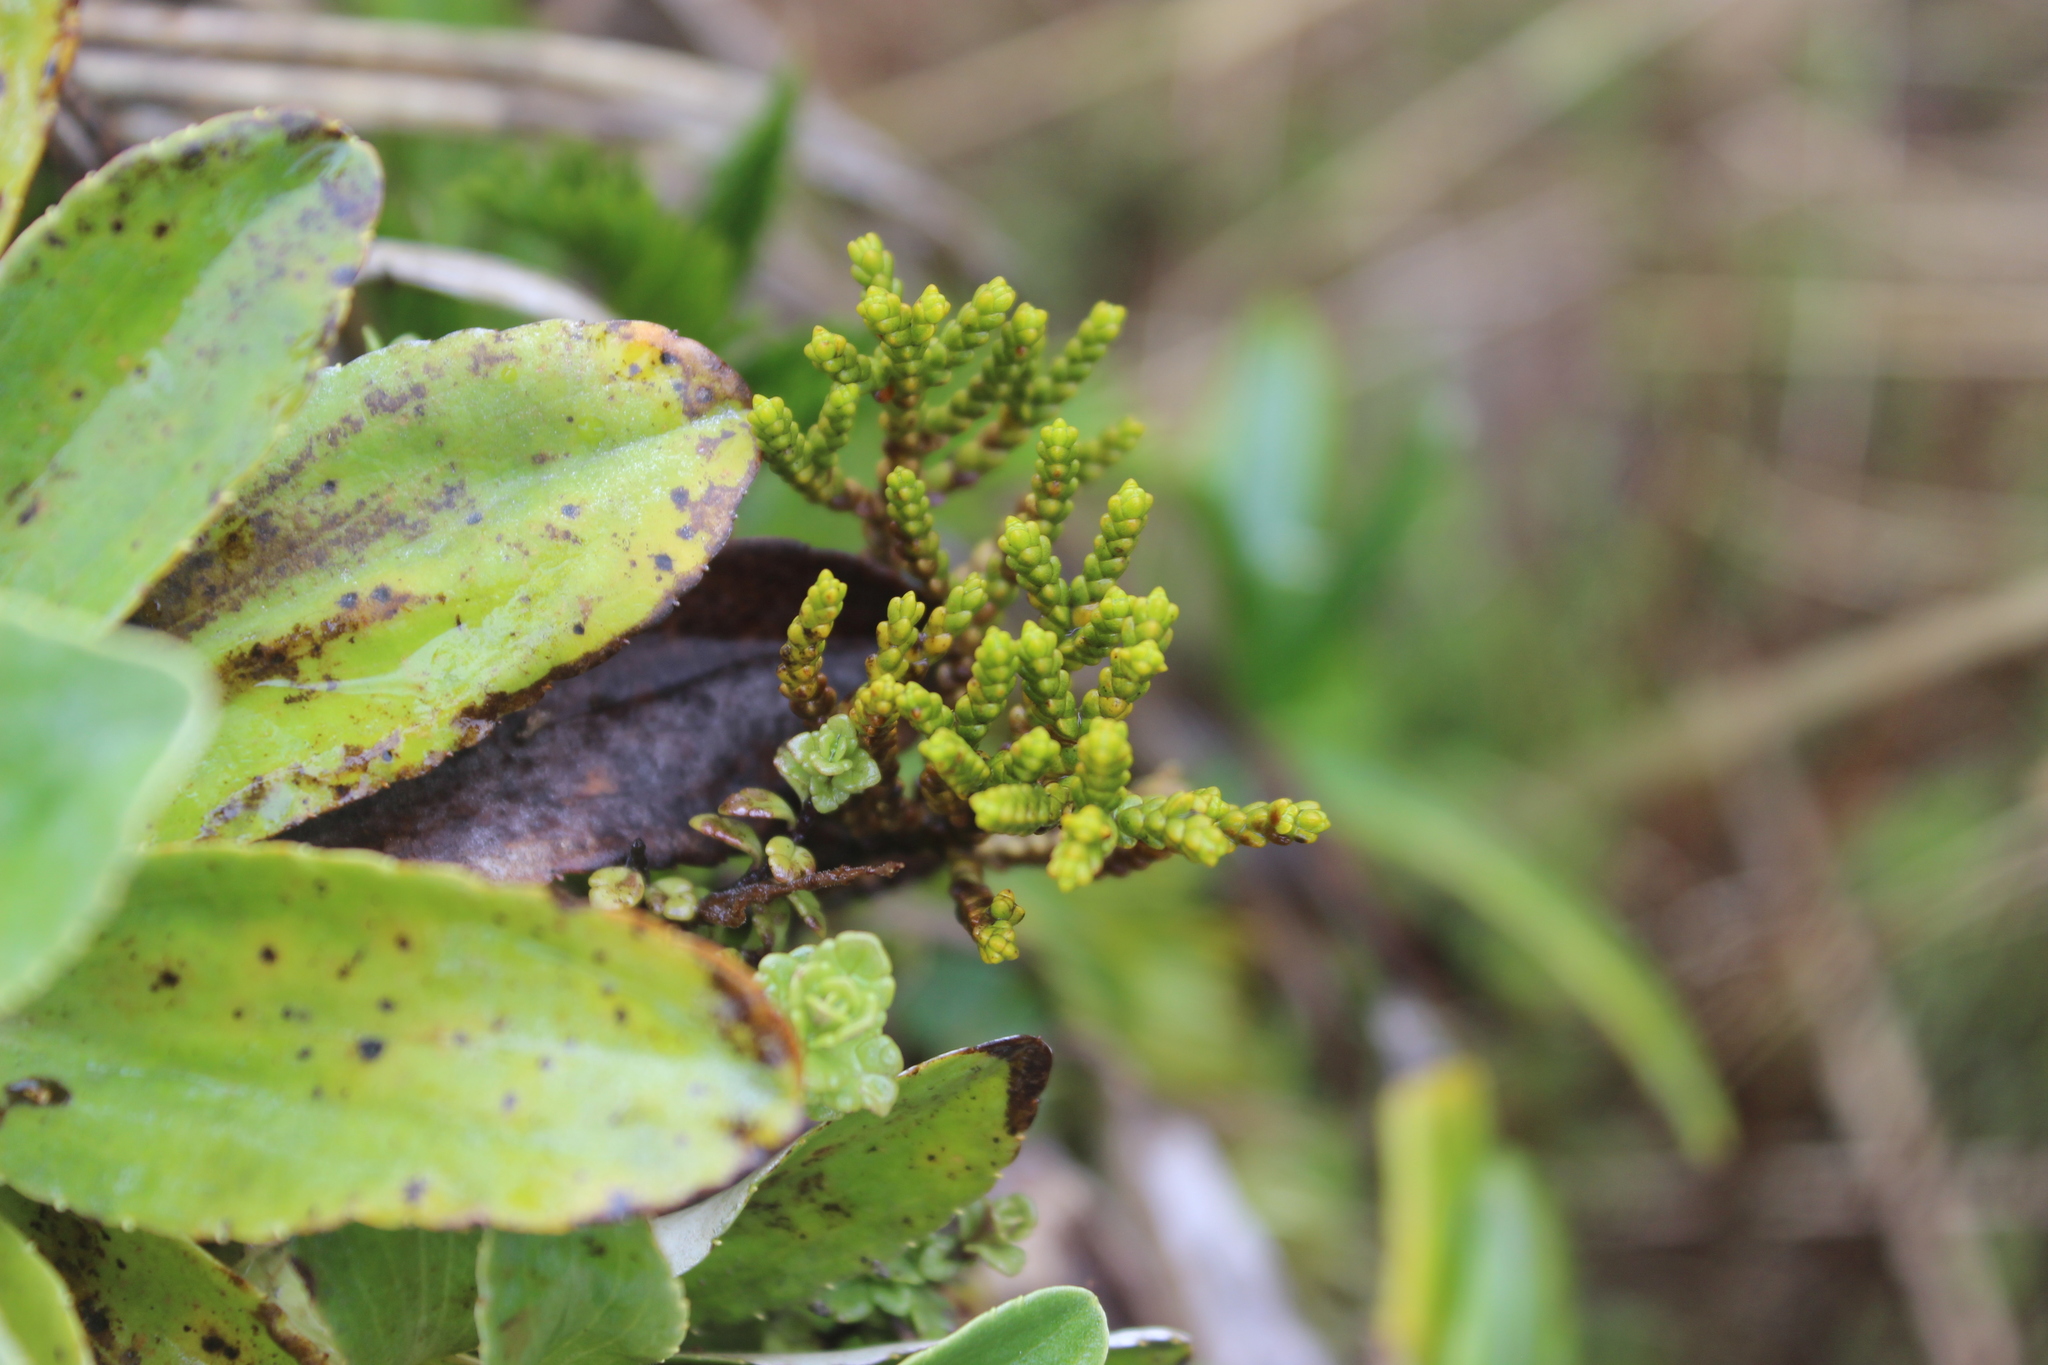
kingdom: Plantae
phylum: Tracheophyta
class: Magnoliopsida
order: Lamiales
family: Plantaginaceae
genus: Veronica
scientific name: Veronica tetragona
